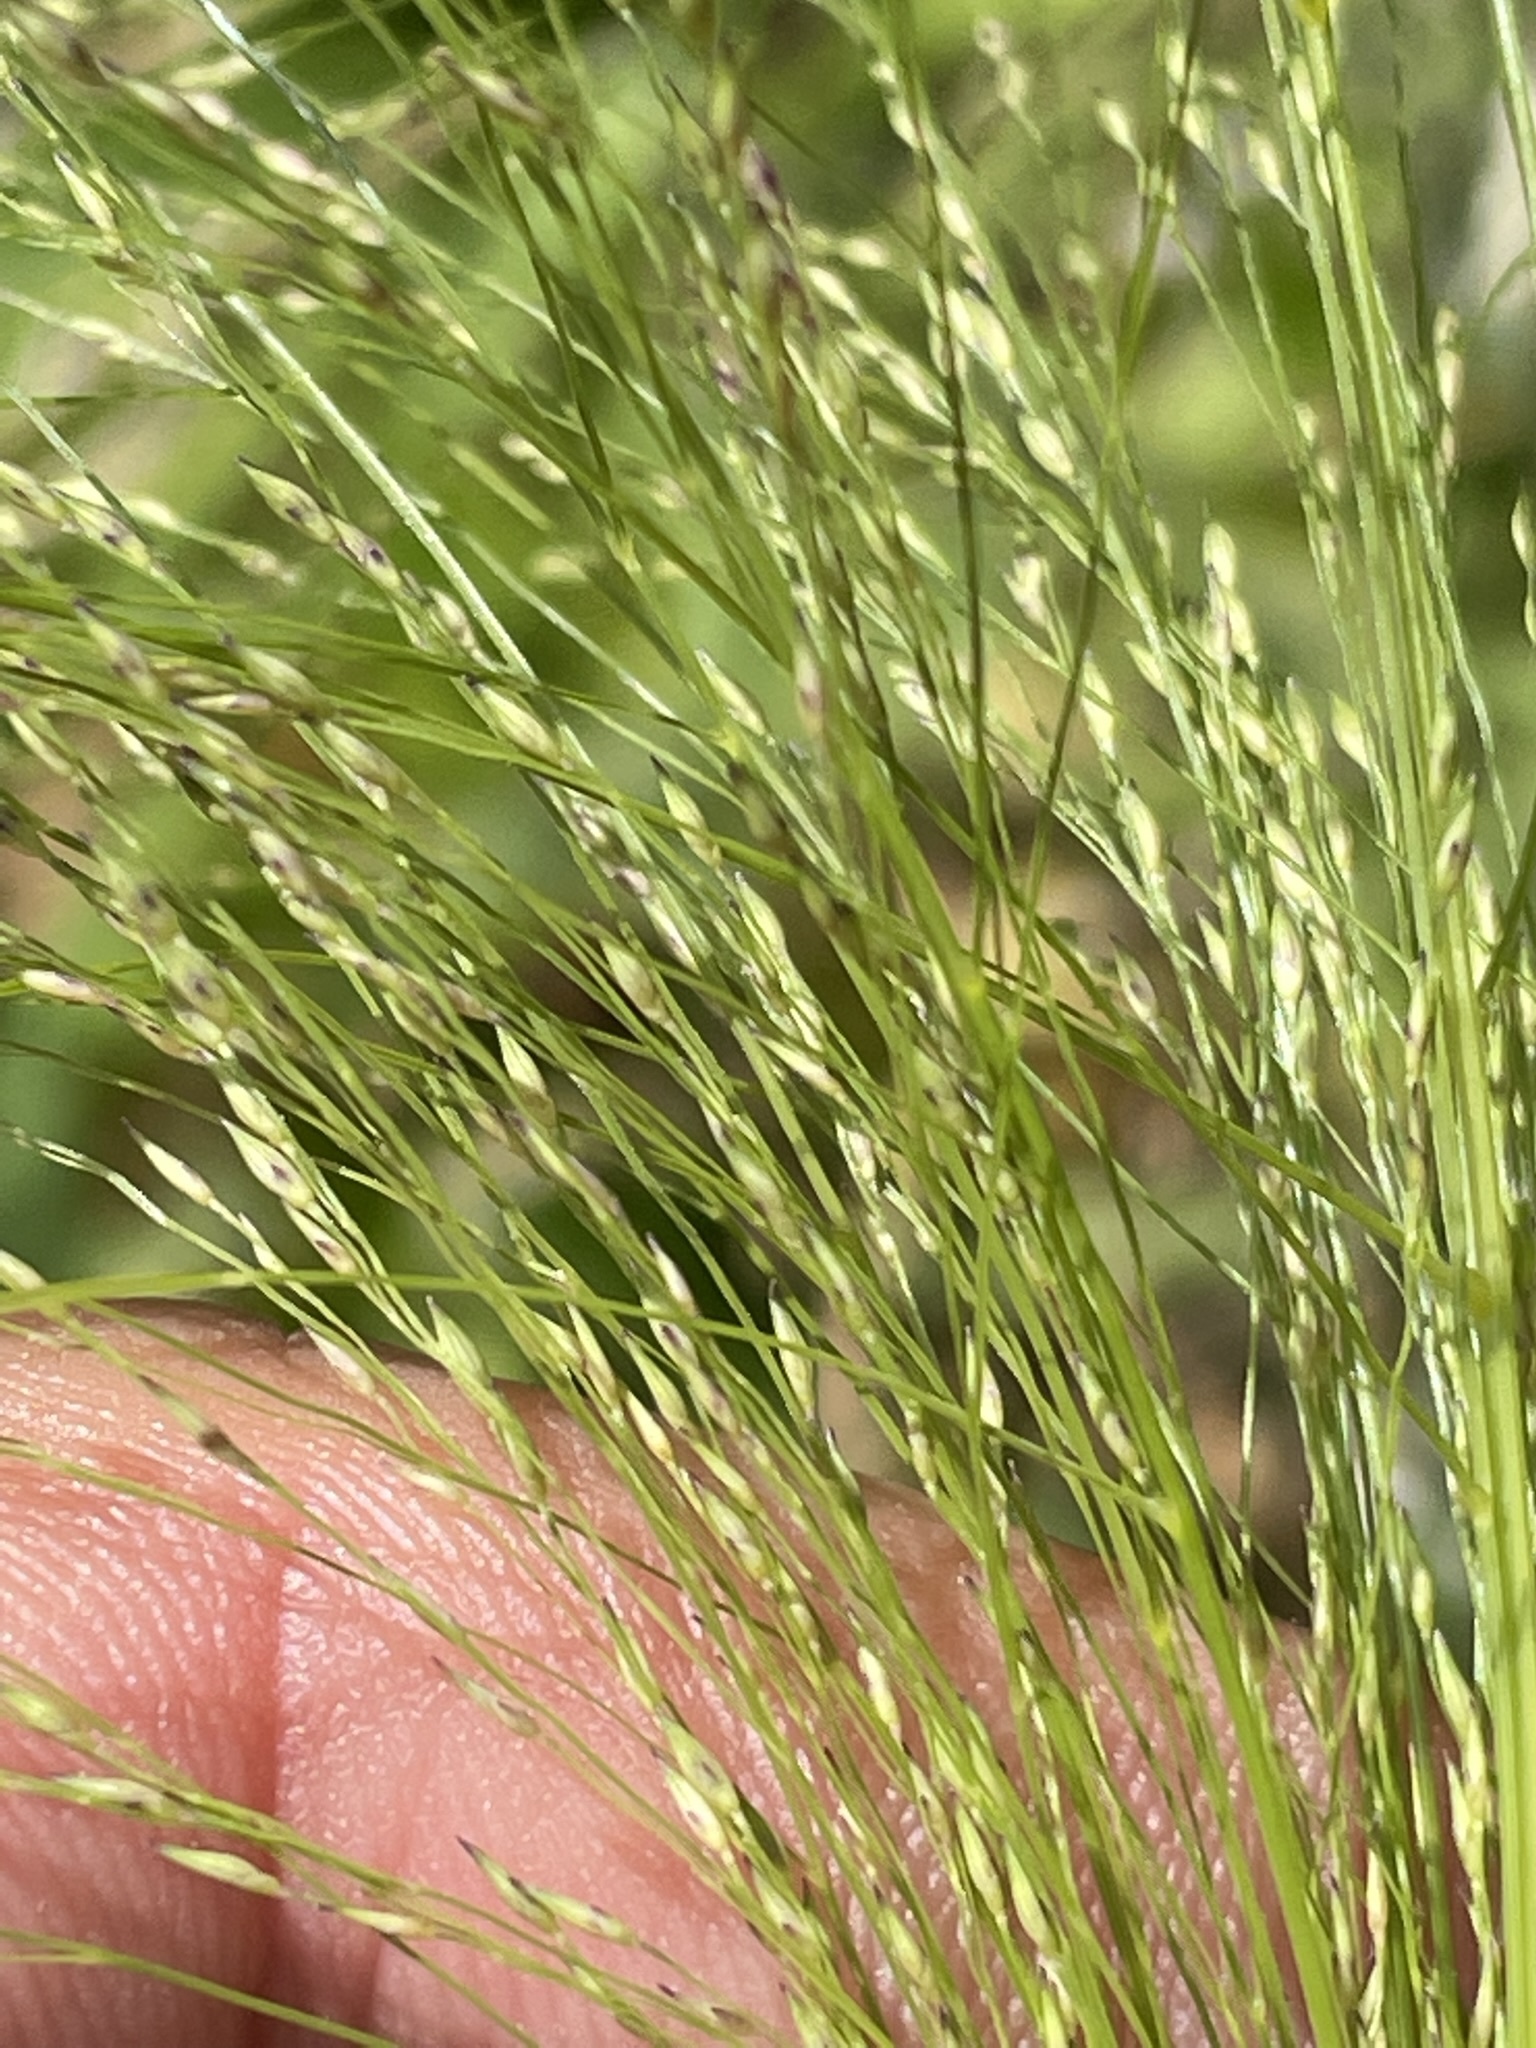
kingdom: Plantae
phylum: Tracheophyta
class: Liliopsida
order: Poales
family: Poaceae
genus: Panicum
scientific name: Panicum capillare
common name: Witch-grass
